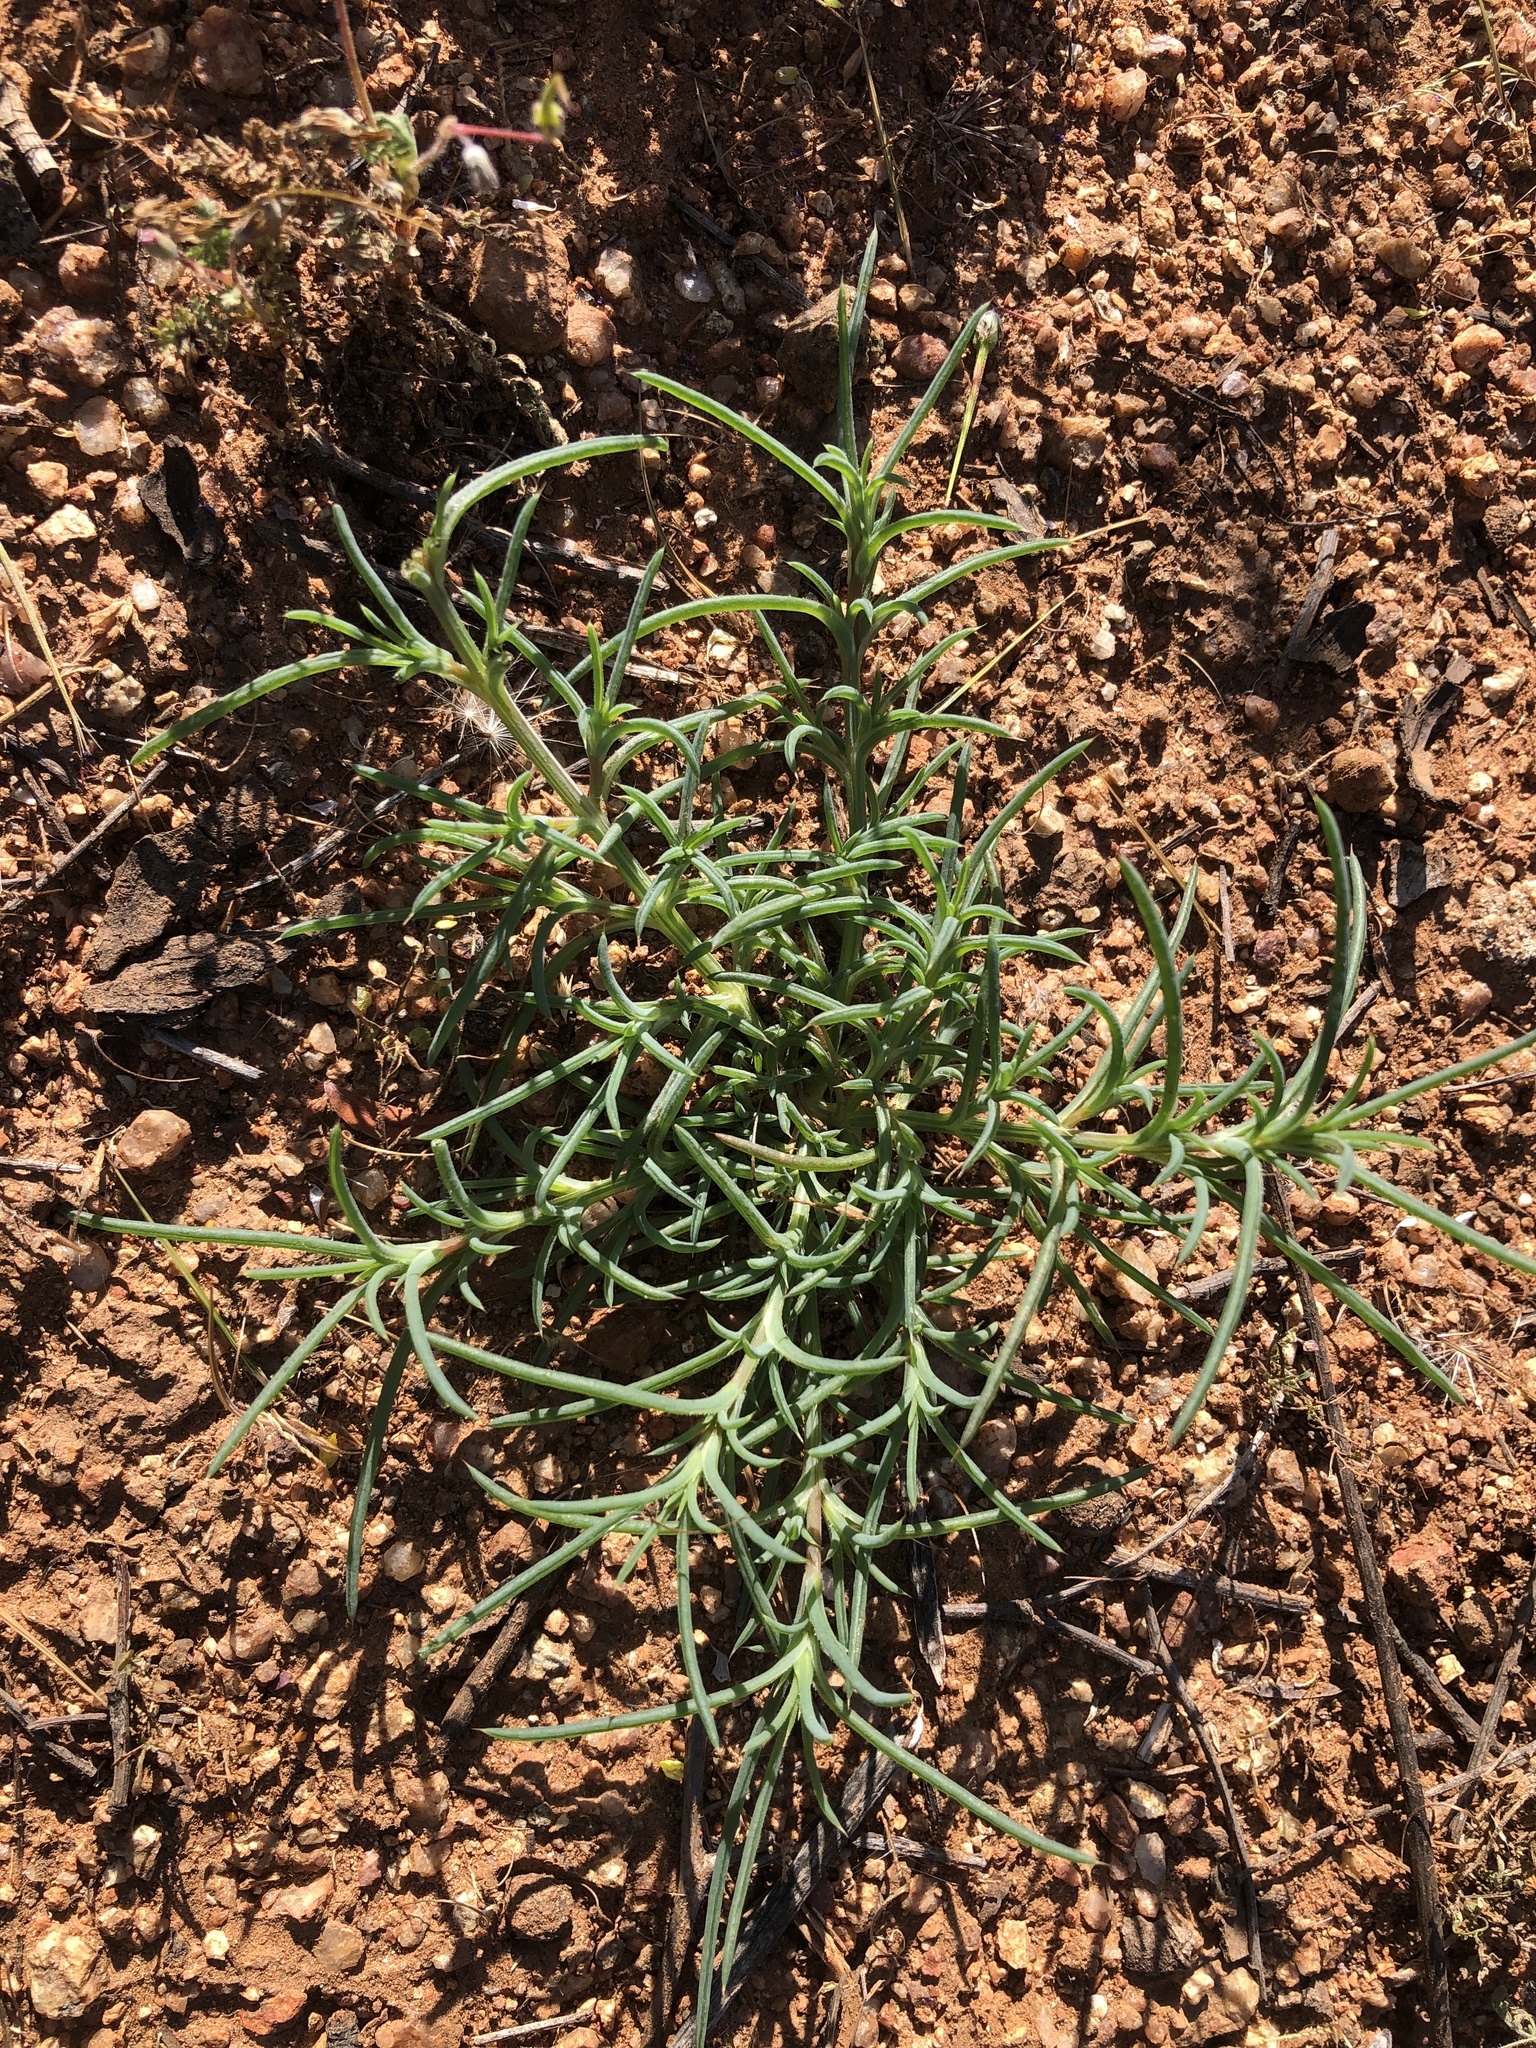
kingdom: Plantae
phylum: Tracheophyta
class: Magnoliopsida
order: Caryophyllales
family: Amaranthaceae
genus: Salsola
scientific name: Salsola tragus
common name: Prickly russian thistle
